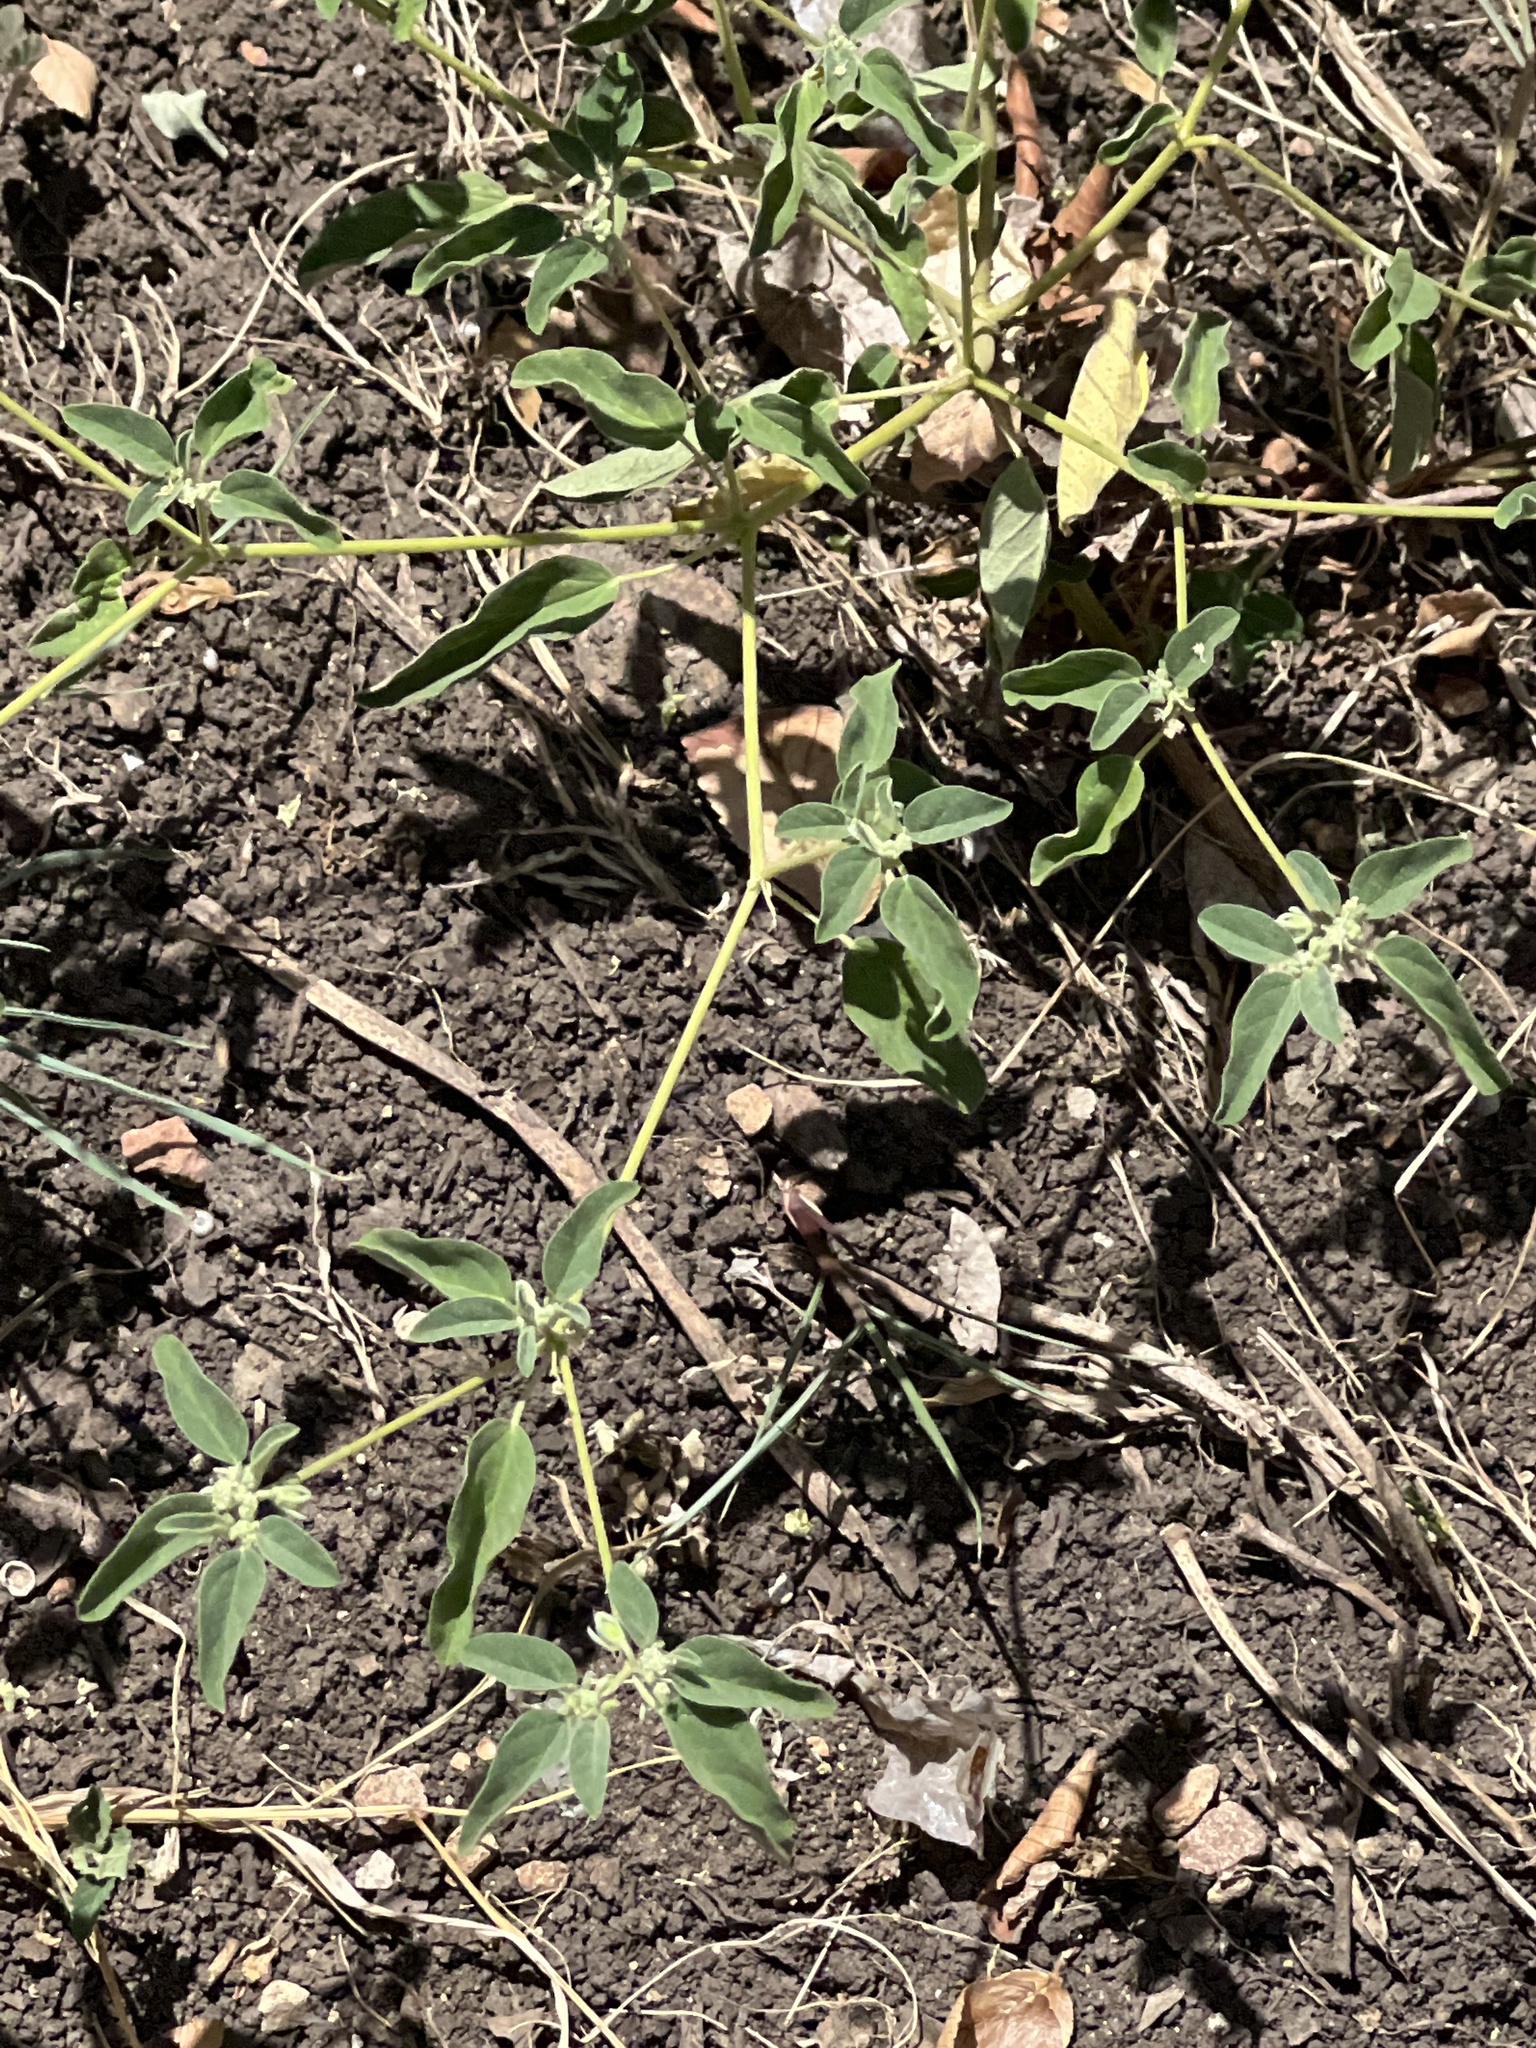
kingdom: Plantae
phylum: Tracheophyta
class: Magnoliopsida
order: Malpighiales
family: Euphorbiaceae
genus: Croton
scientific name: Croton monanthogynus
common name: One-seed croton
